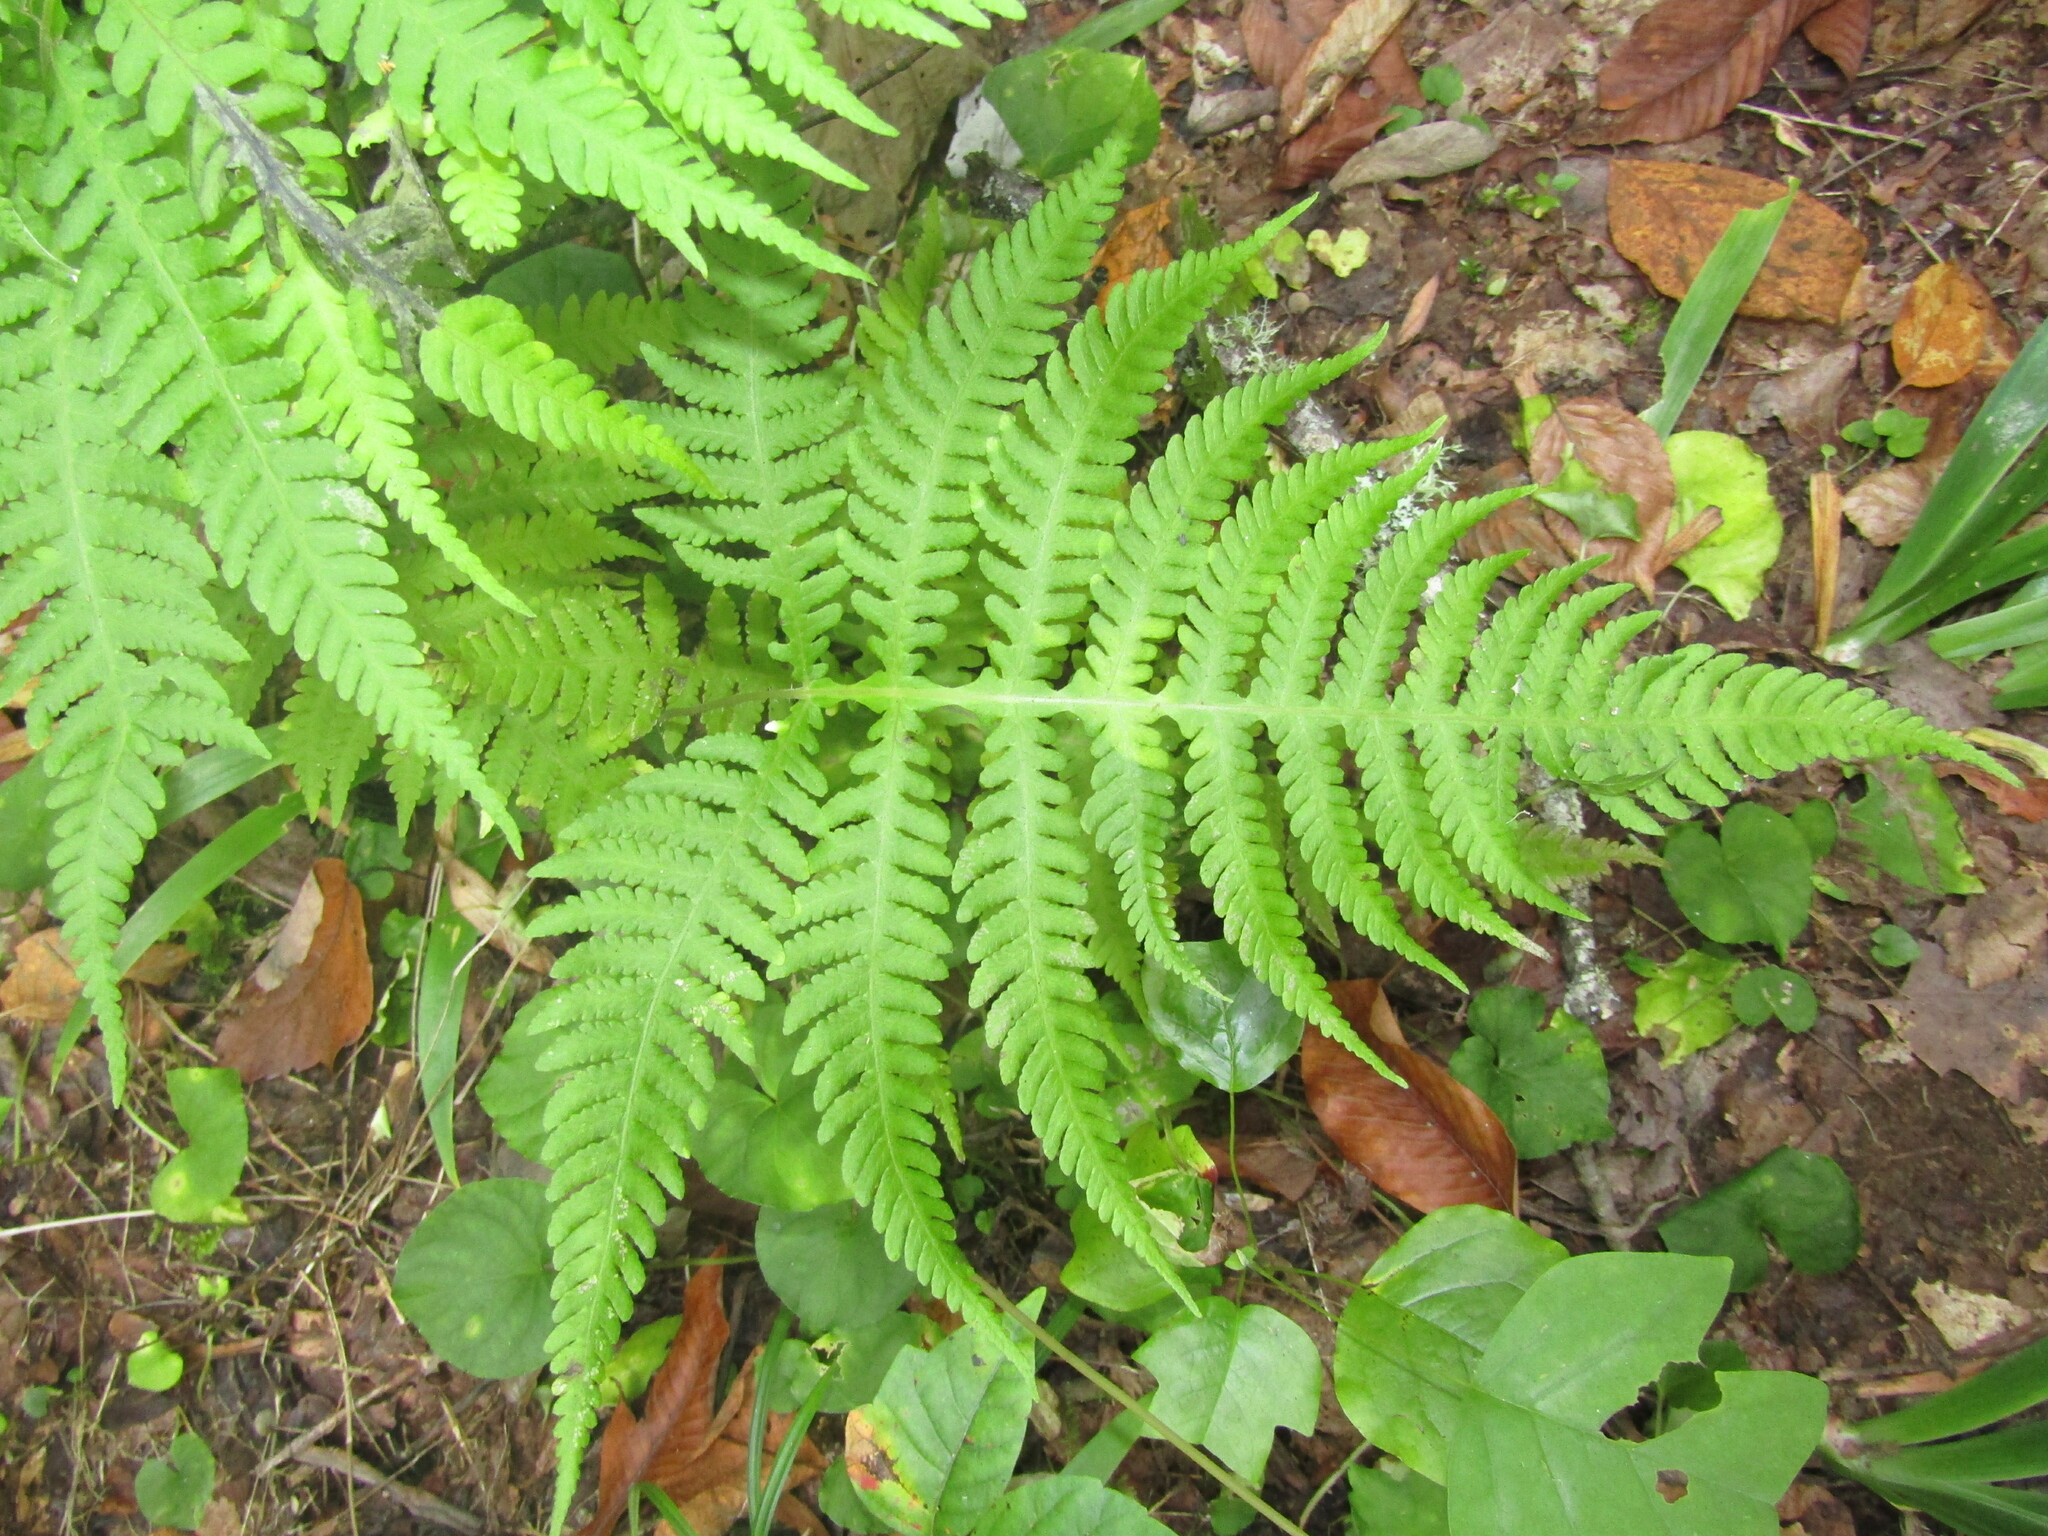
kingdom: Plantae
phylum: Tracheophyta
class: Polypodiopsida
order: Polypodiales
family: Thelypteridaceae
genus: Phegopteris
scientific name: Phegopteris hexagonoptera
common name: Broad beech fern
